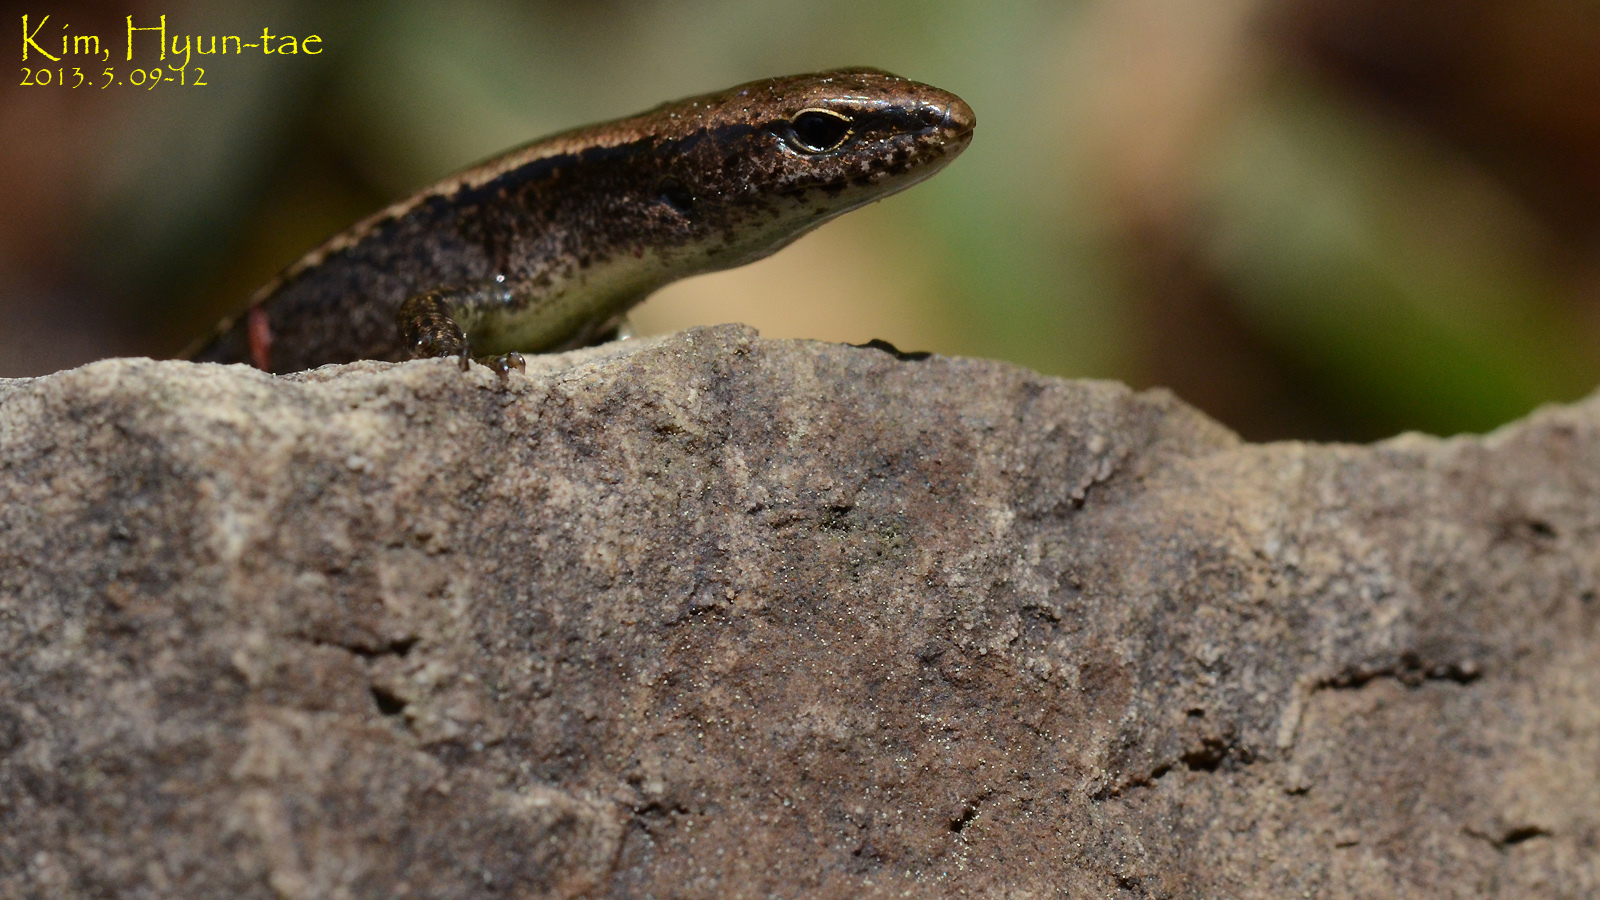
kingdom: Animalia
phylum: Chordata
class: Squamata
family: Scincidae
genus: Scincella
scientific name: Scincella vandenburghi
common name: Tsushima smooth skink
